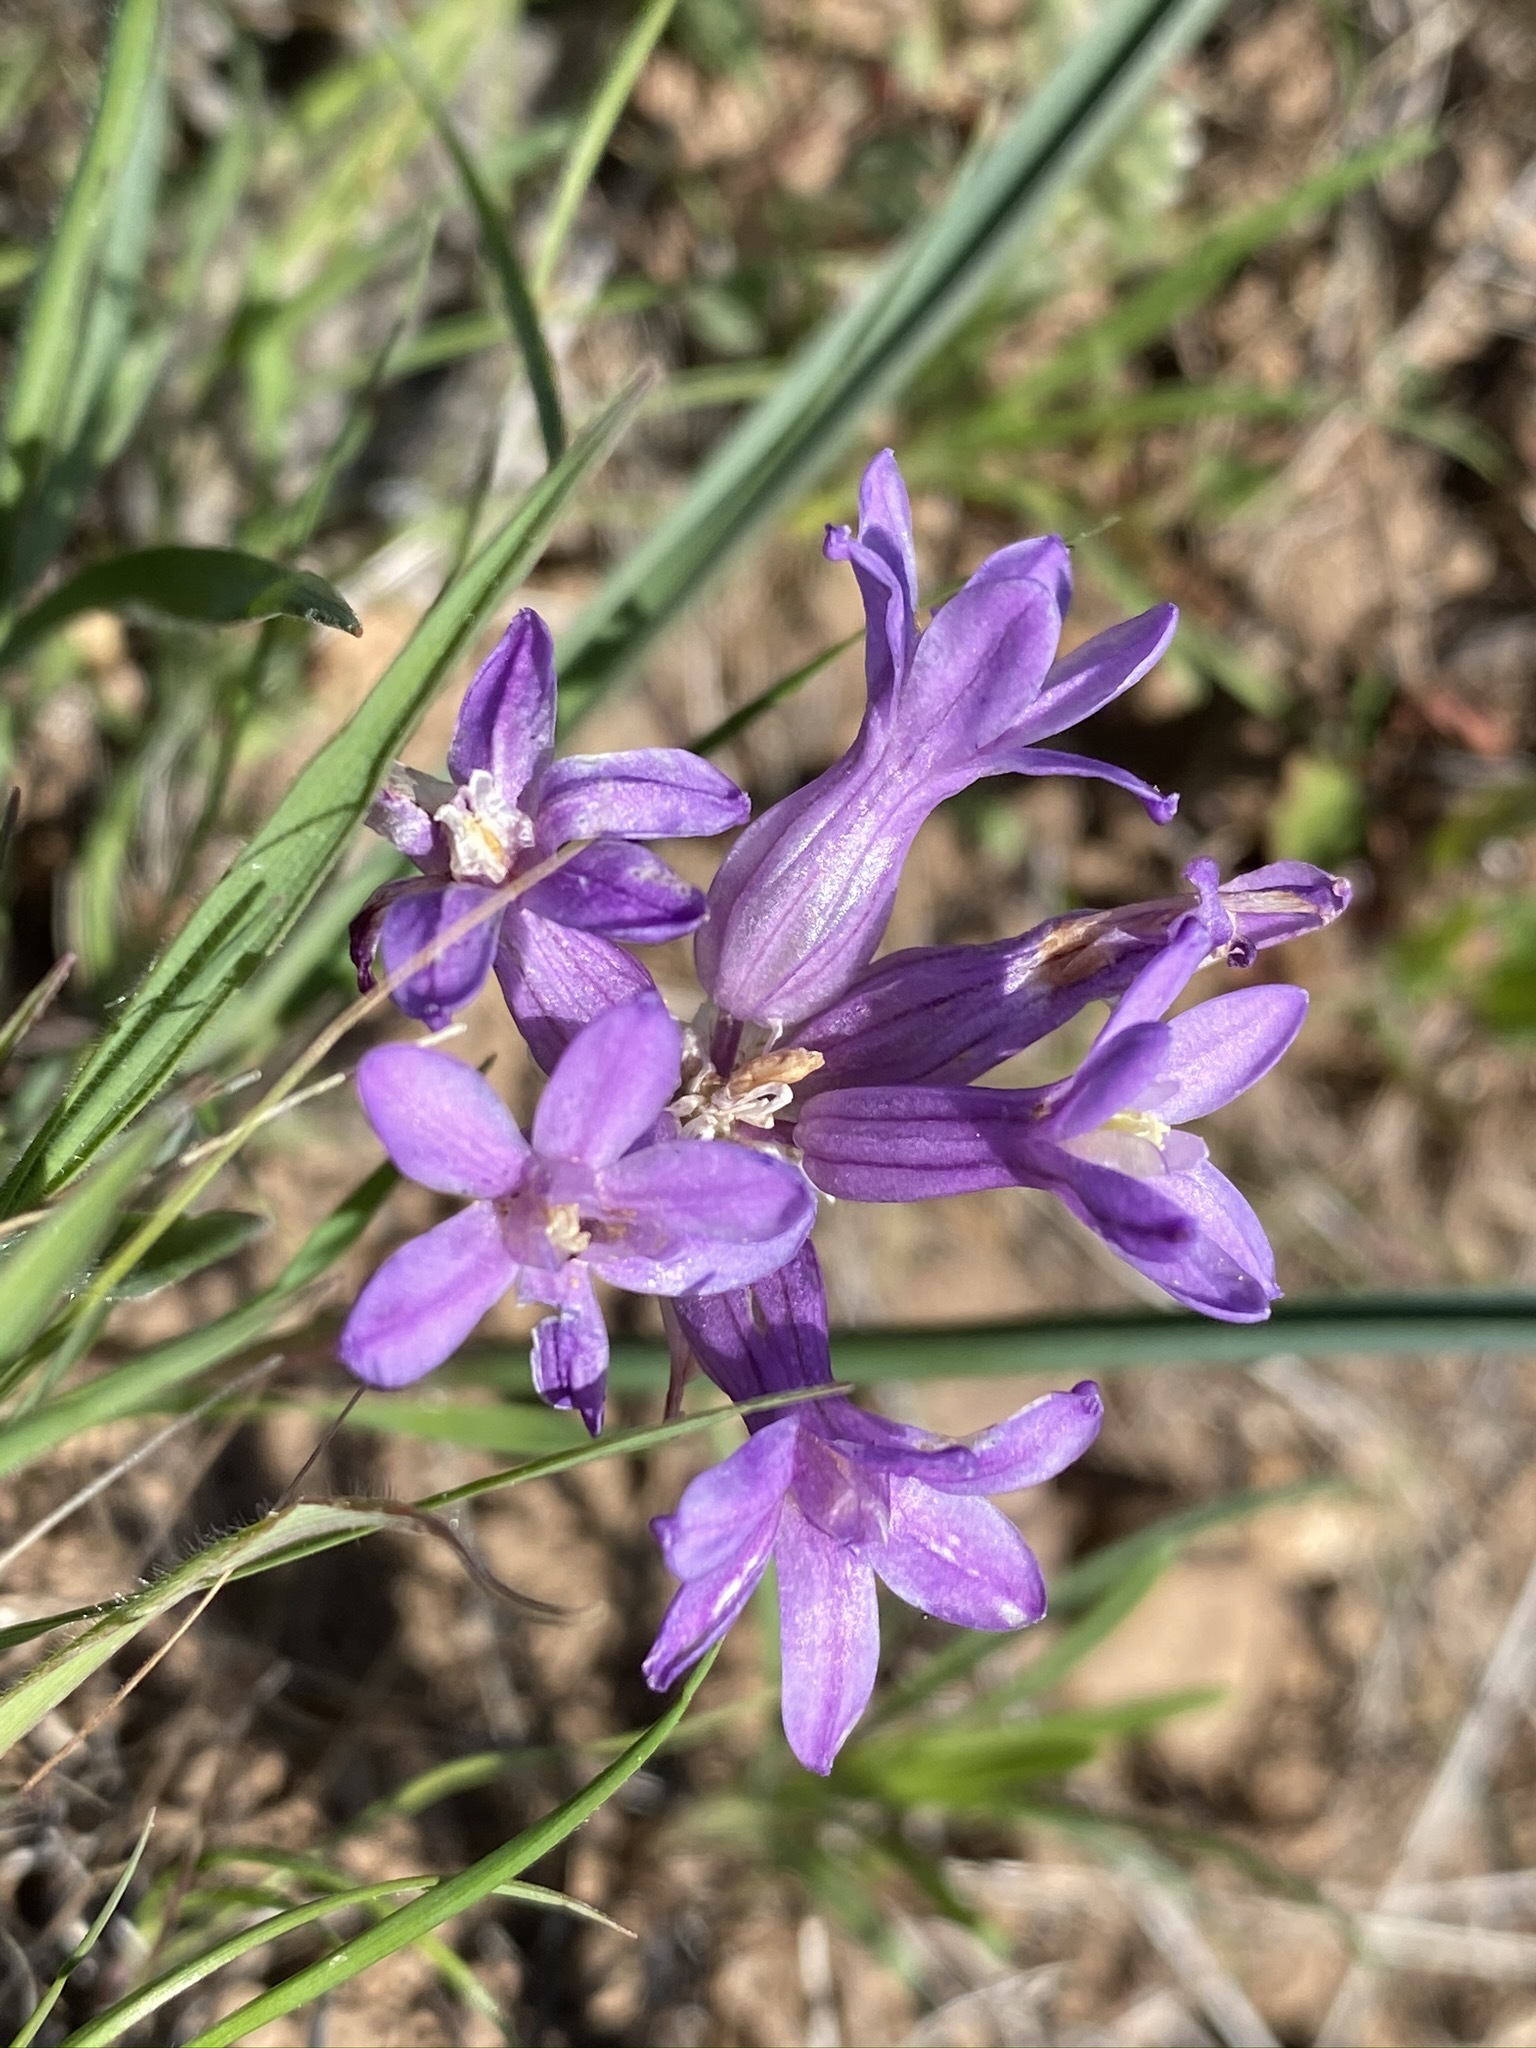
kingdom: Plantae
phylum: Tracheophyta
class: Liliopsida
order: Asparagales
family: Asparagaceae
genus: Dichelostemma
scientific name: Dichelostemma multiflorum
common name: Round-tooth ookow
